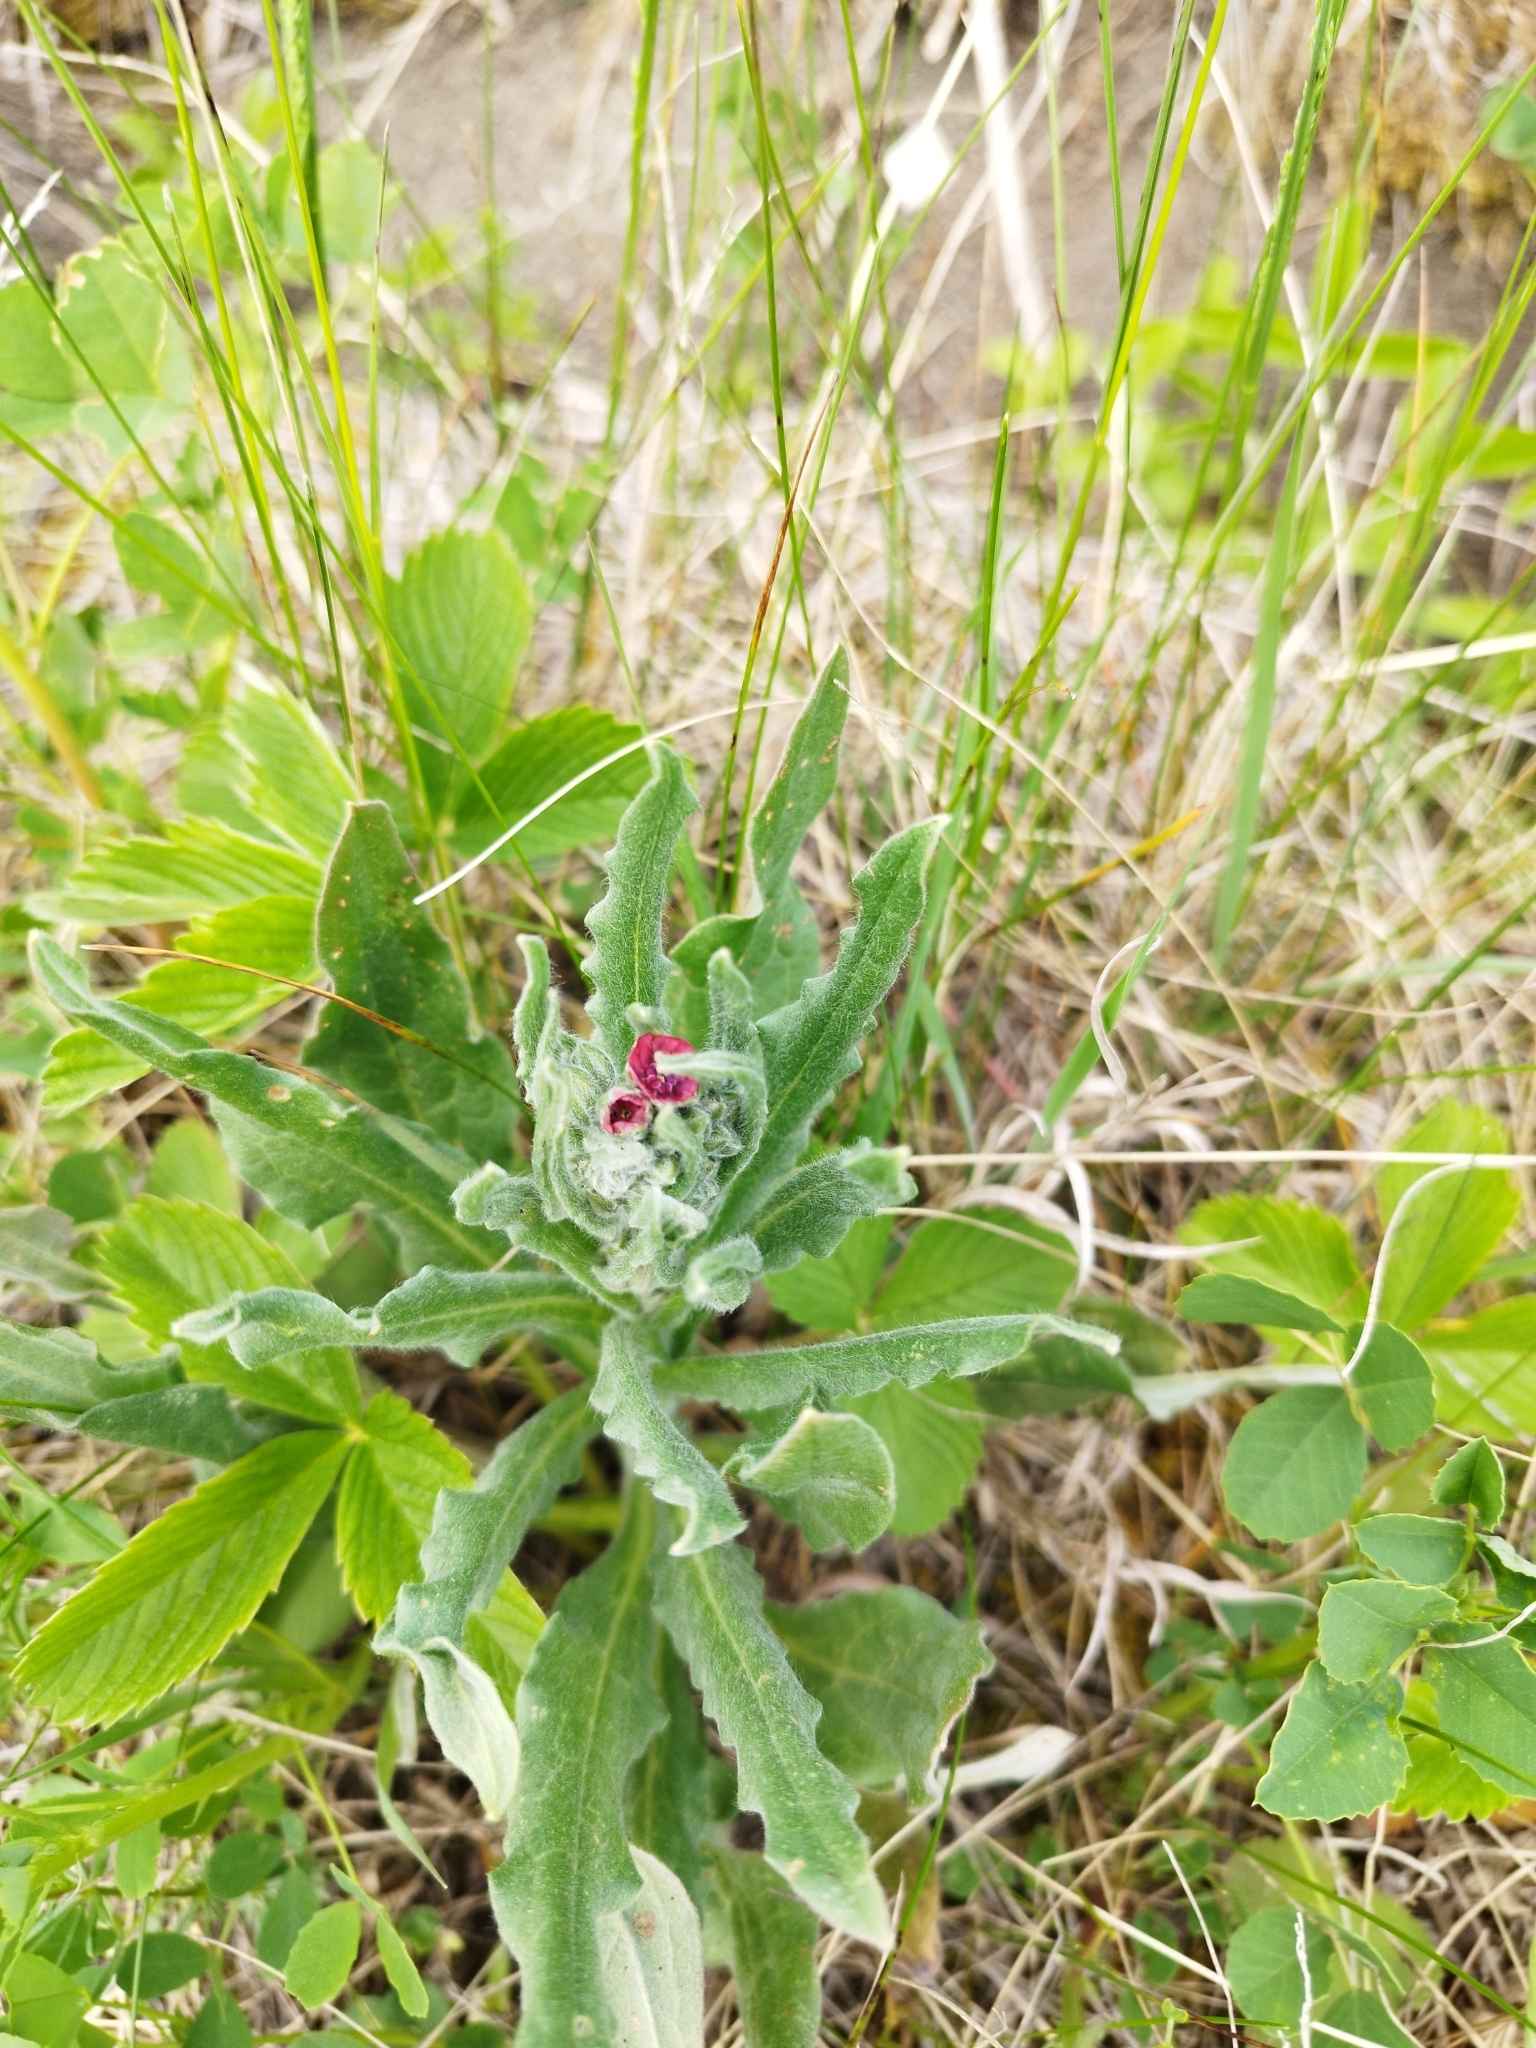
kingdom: Plantae
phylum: Tracheophyta
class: Magnoliopsida
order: Boraginales
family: Boraginaceae
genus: Cynoglossum
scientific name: Cynoglossum officinale
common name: Hound's-tongue
